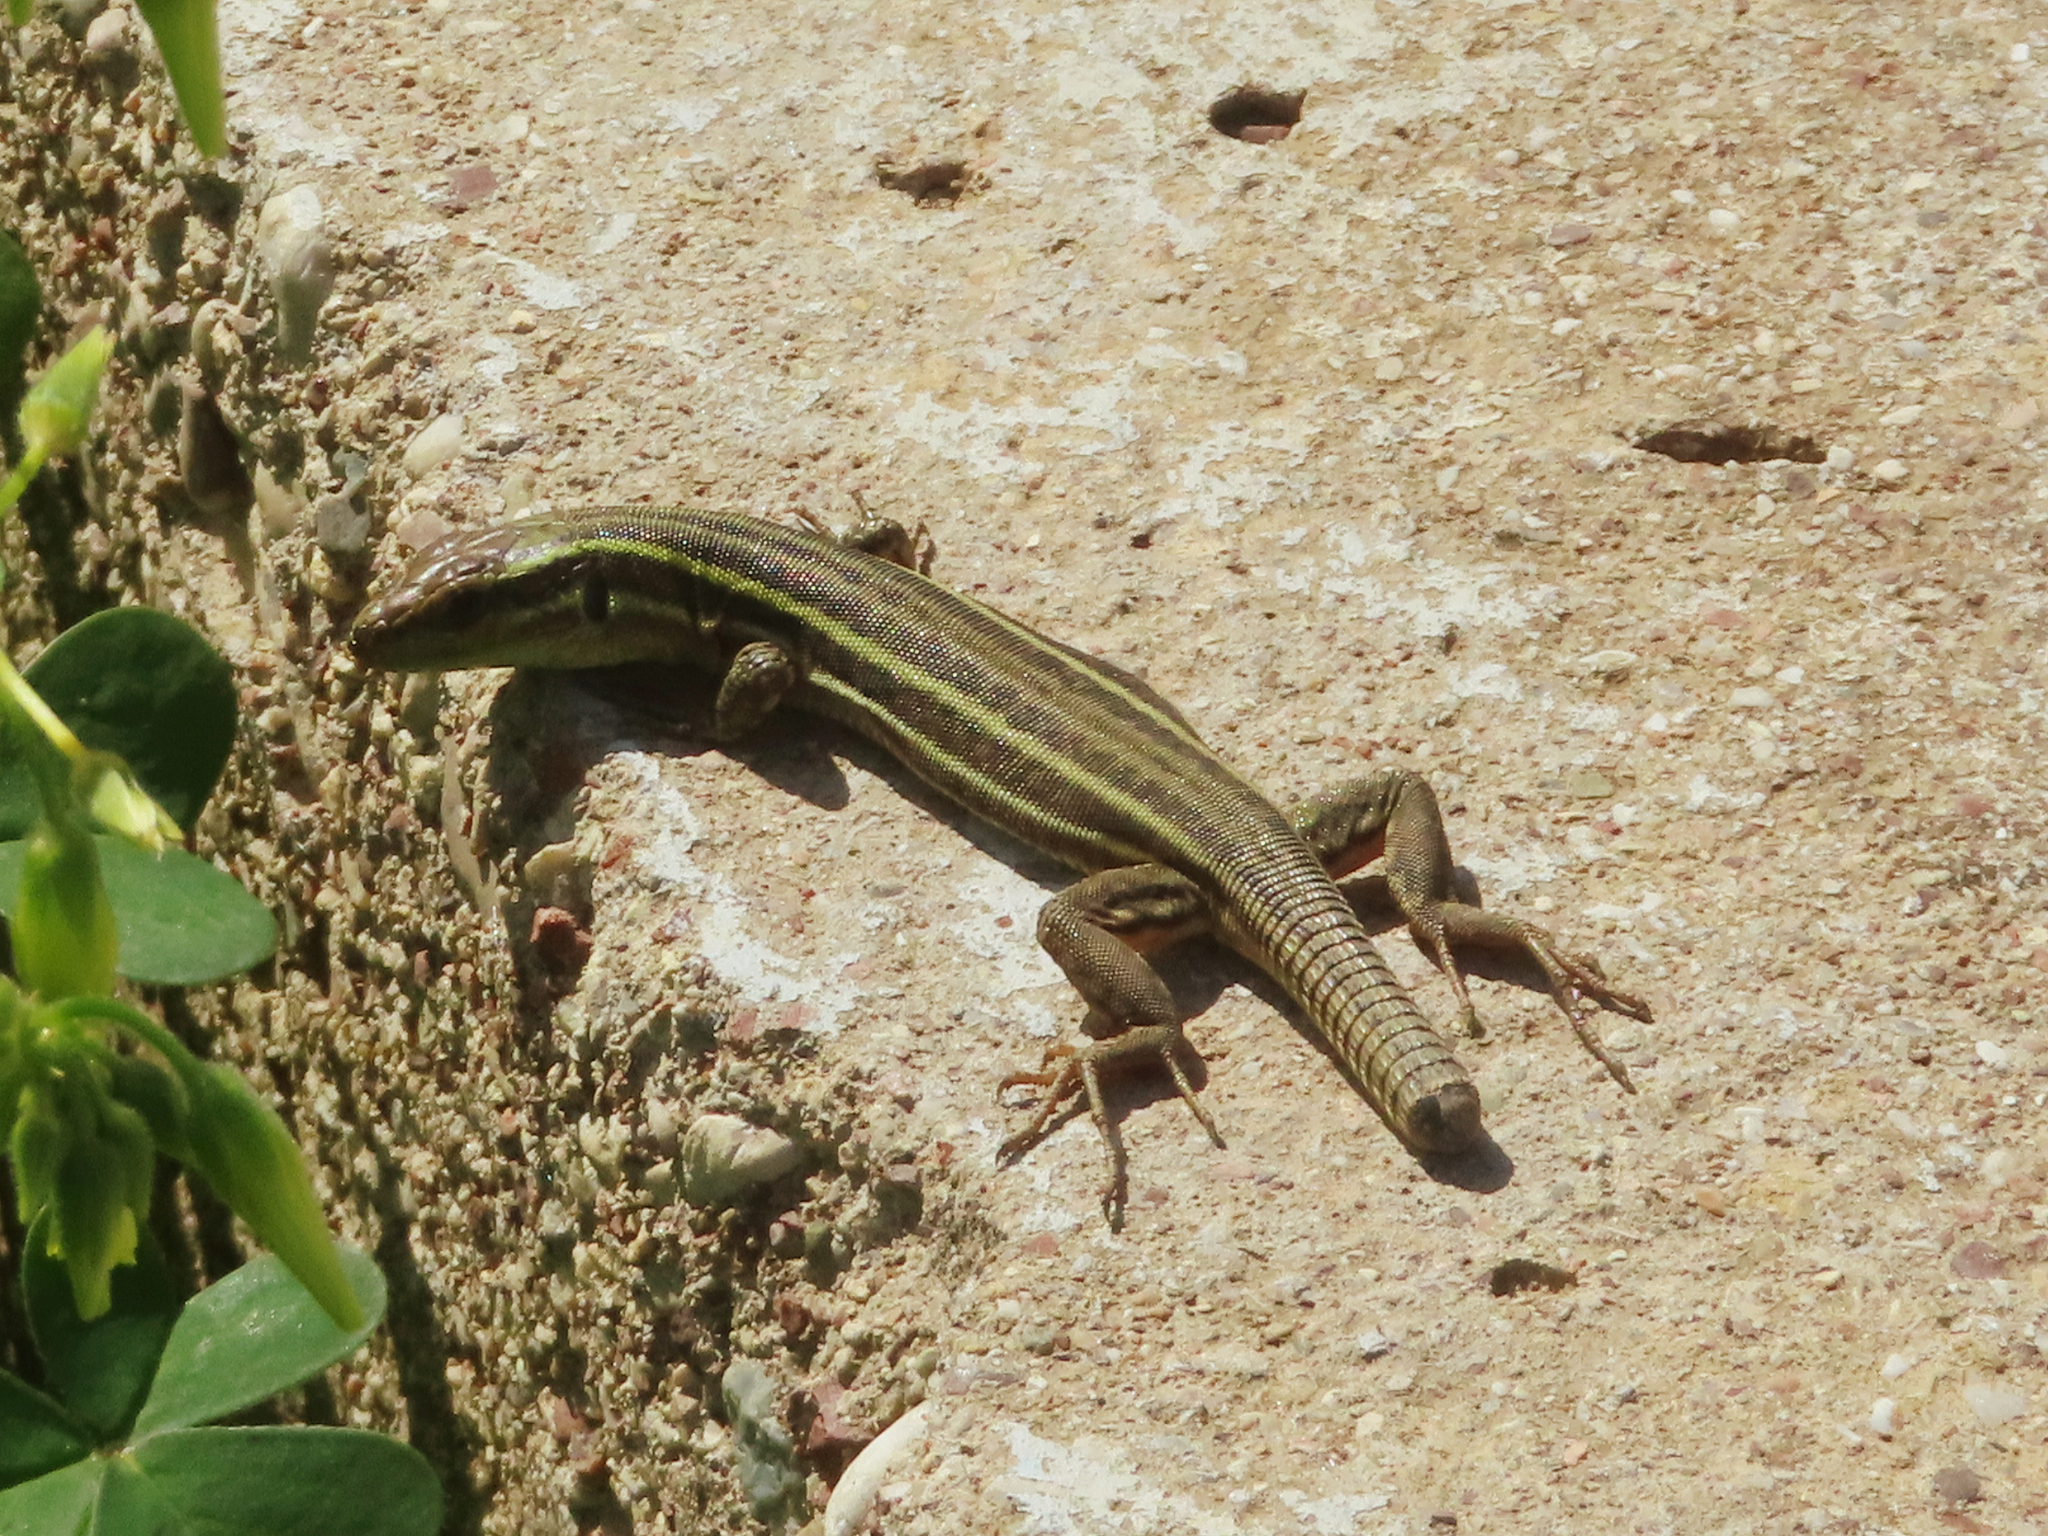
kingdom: Animalia
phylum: Chordata
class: Squamata
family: Lacertidae
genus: Podarcis
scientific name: Podarcis peloponnesiacus
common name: Peloponnese wall lizard
